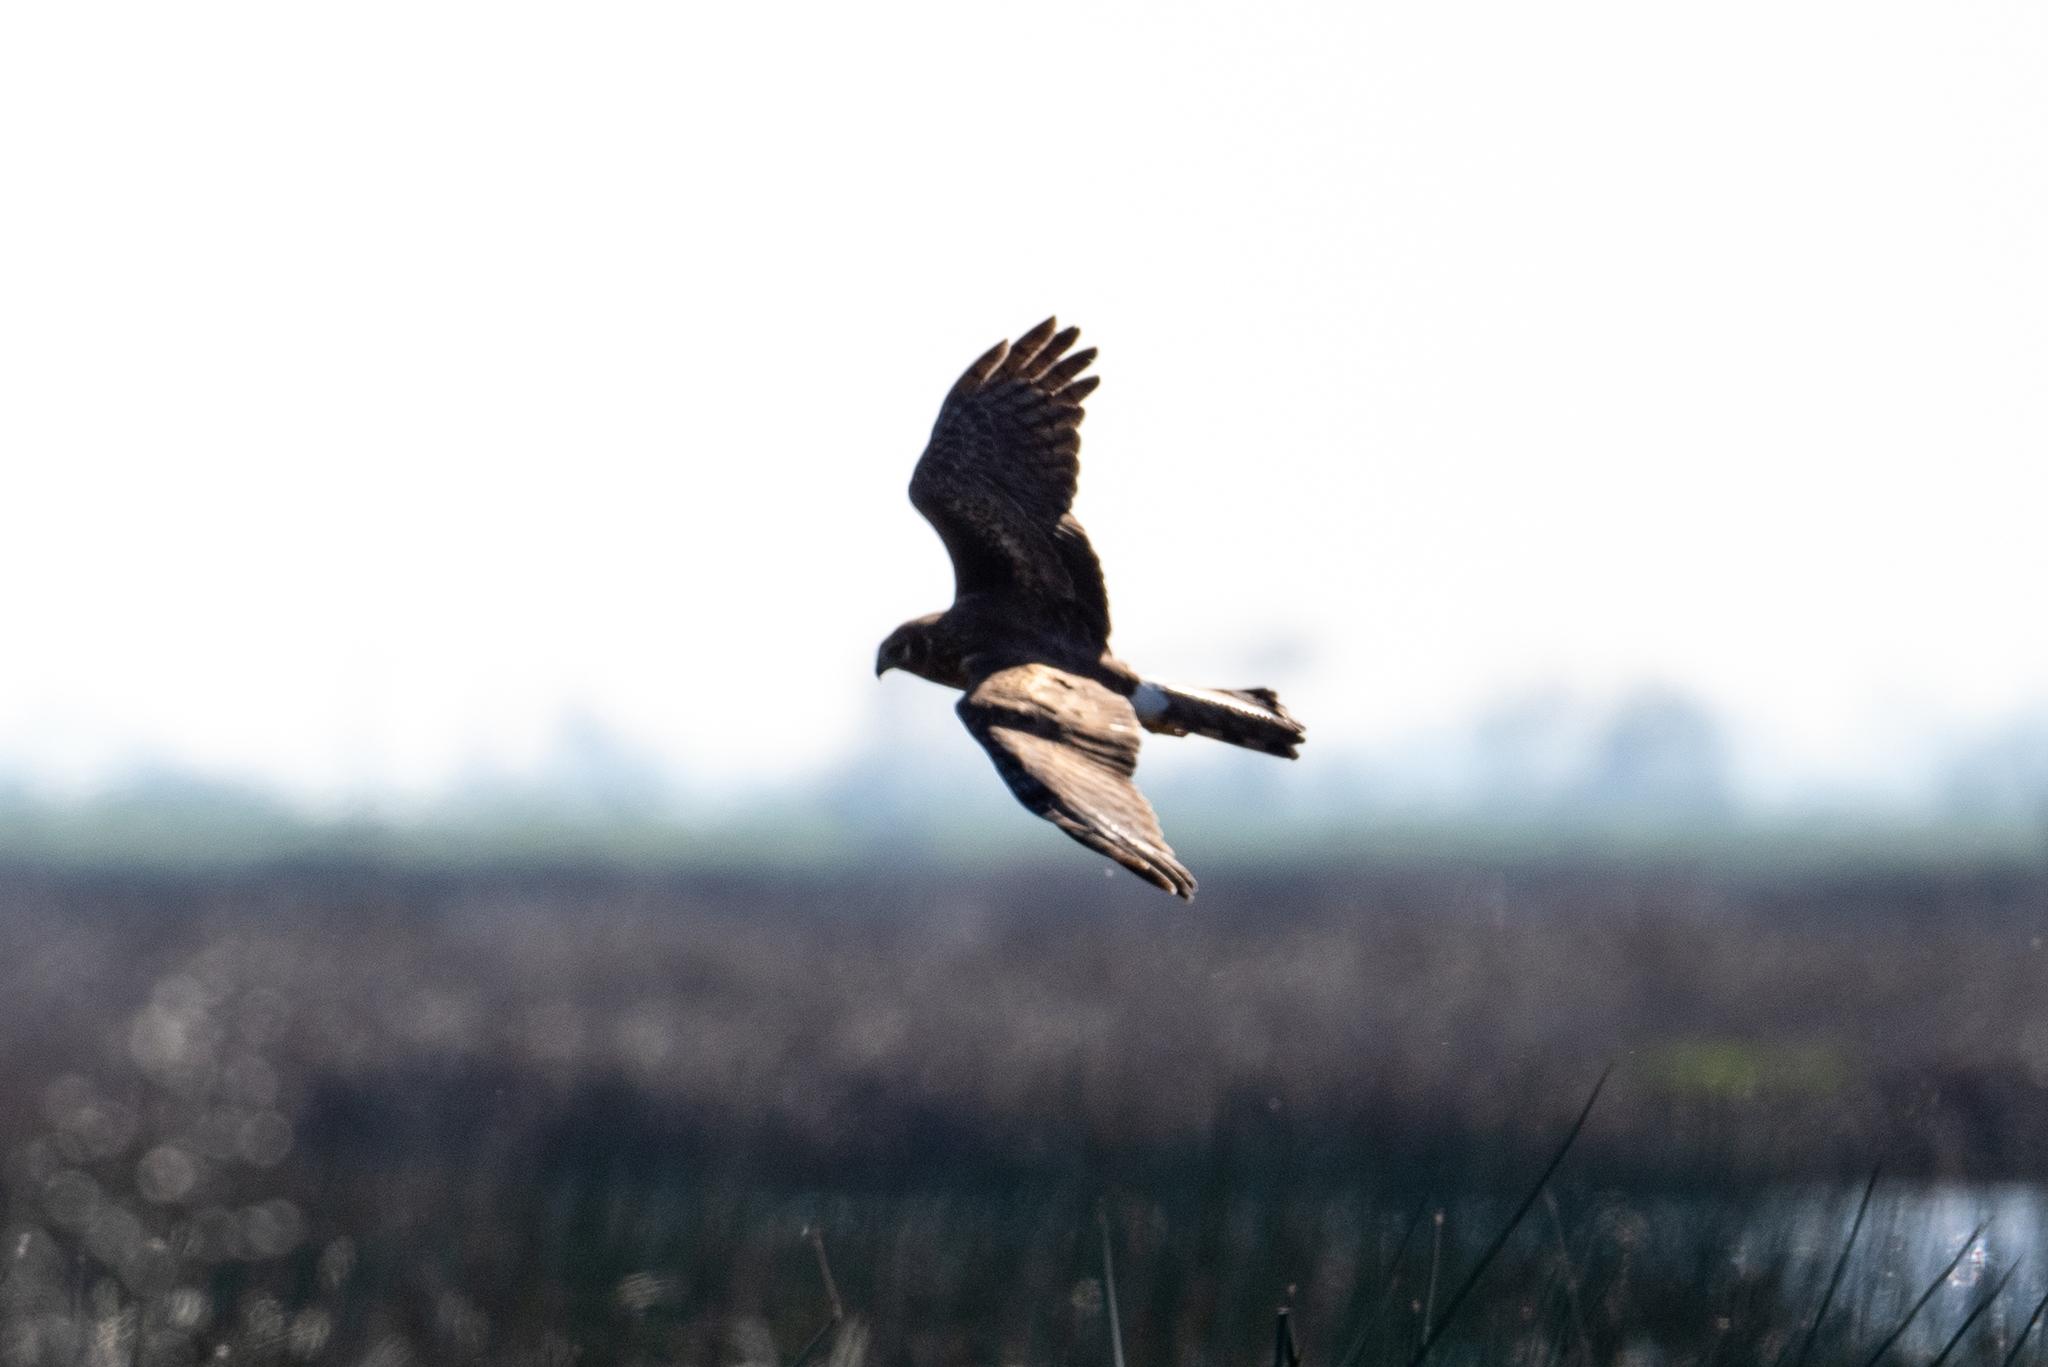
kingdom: Animalia
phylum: Chordata
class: Aves
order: Accipitriformes
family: Accipitridae
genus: Circus
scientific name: Circus cyaneus
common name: Hen harrier
